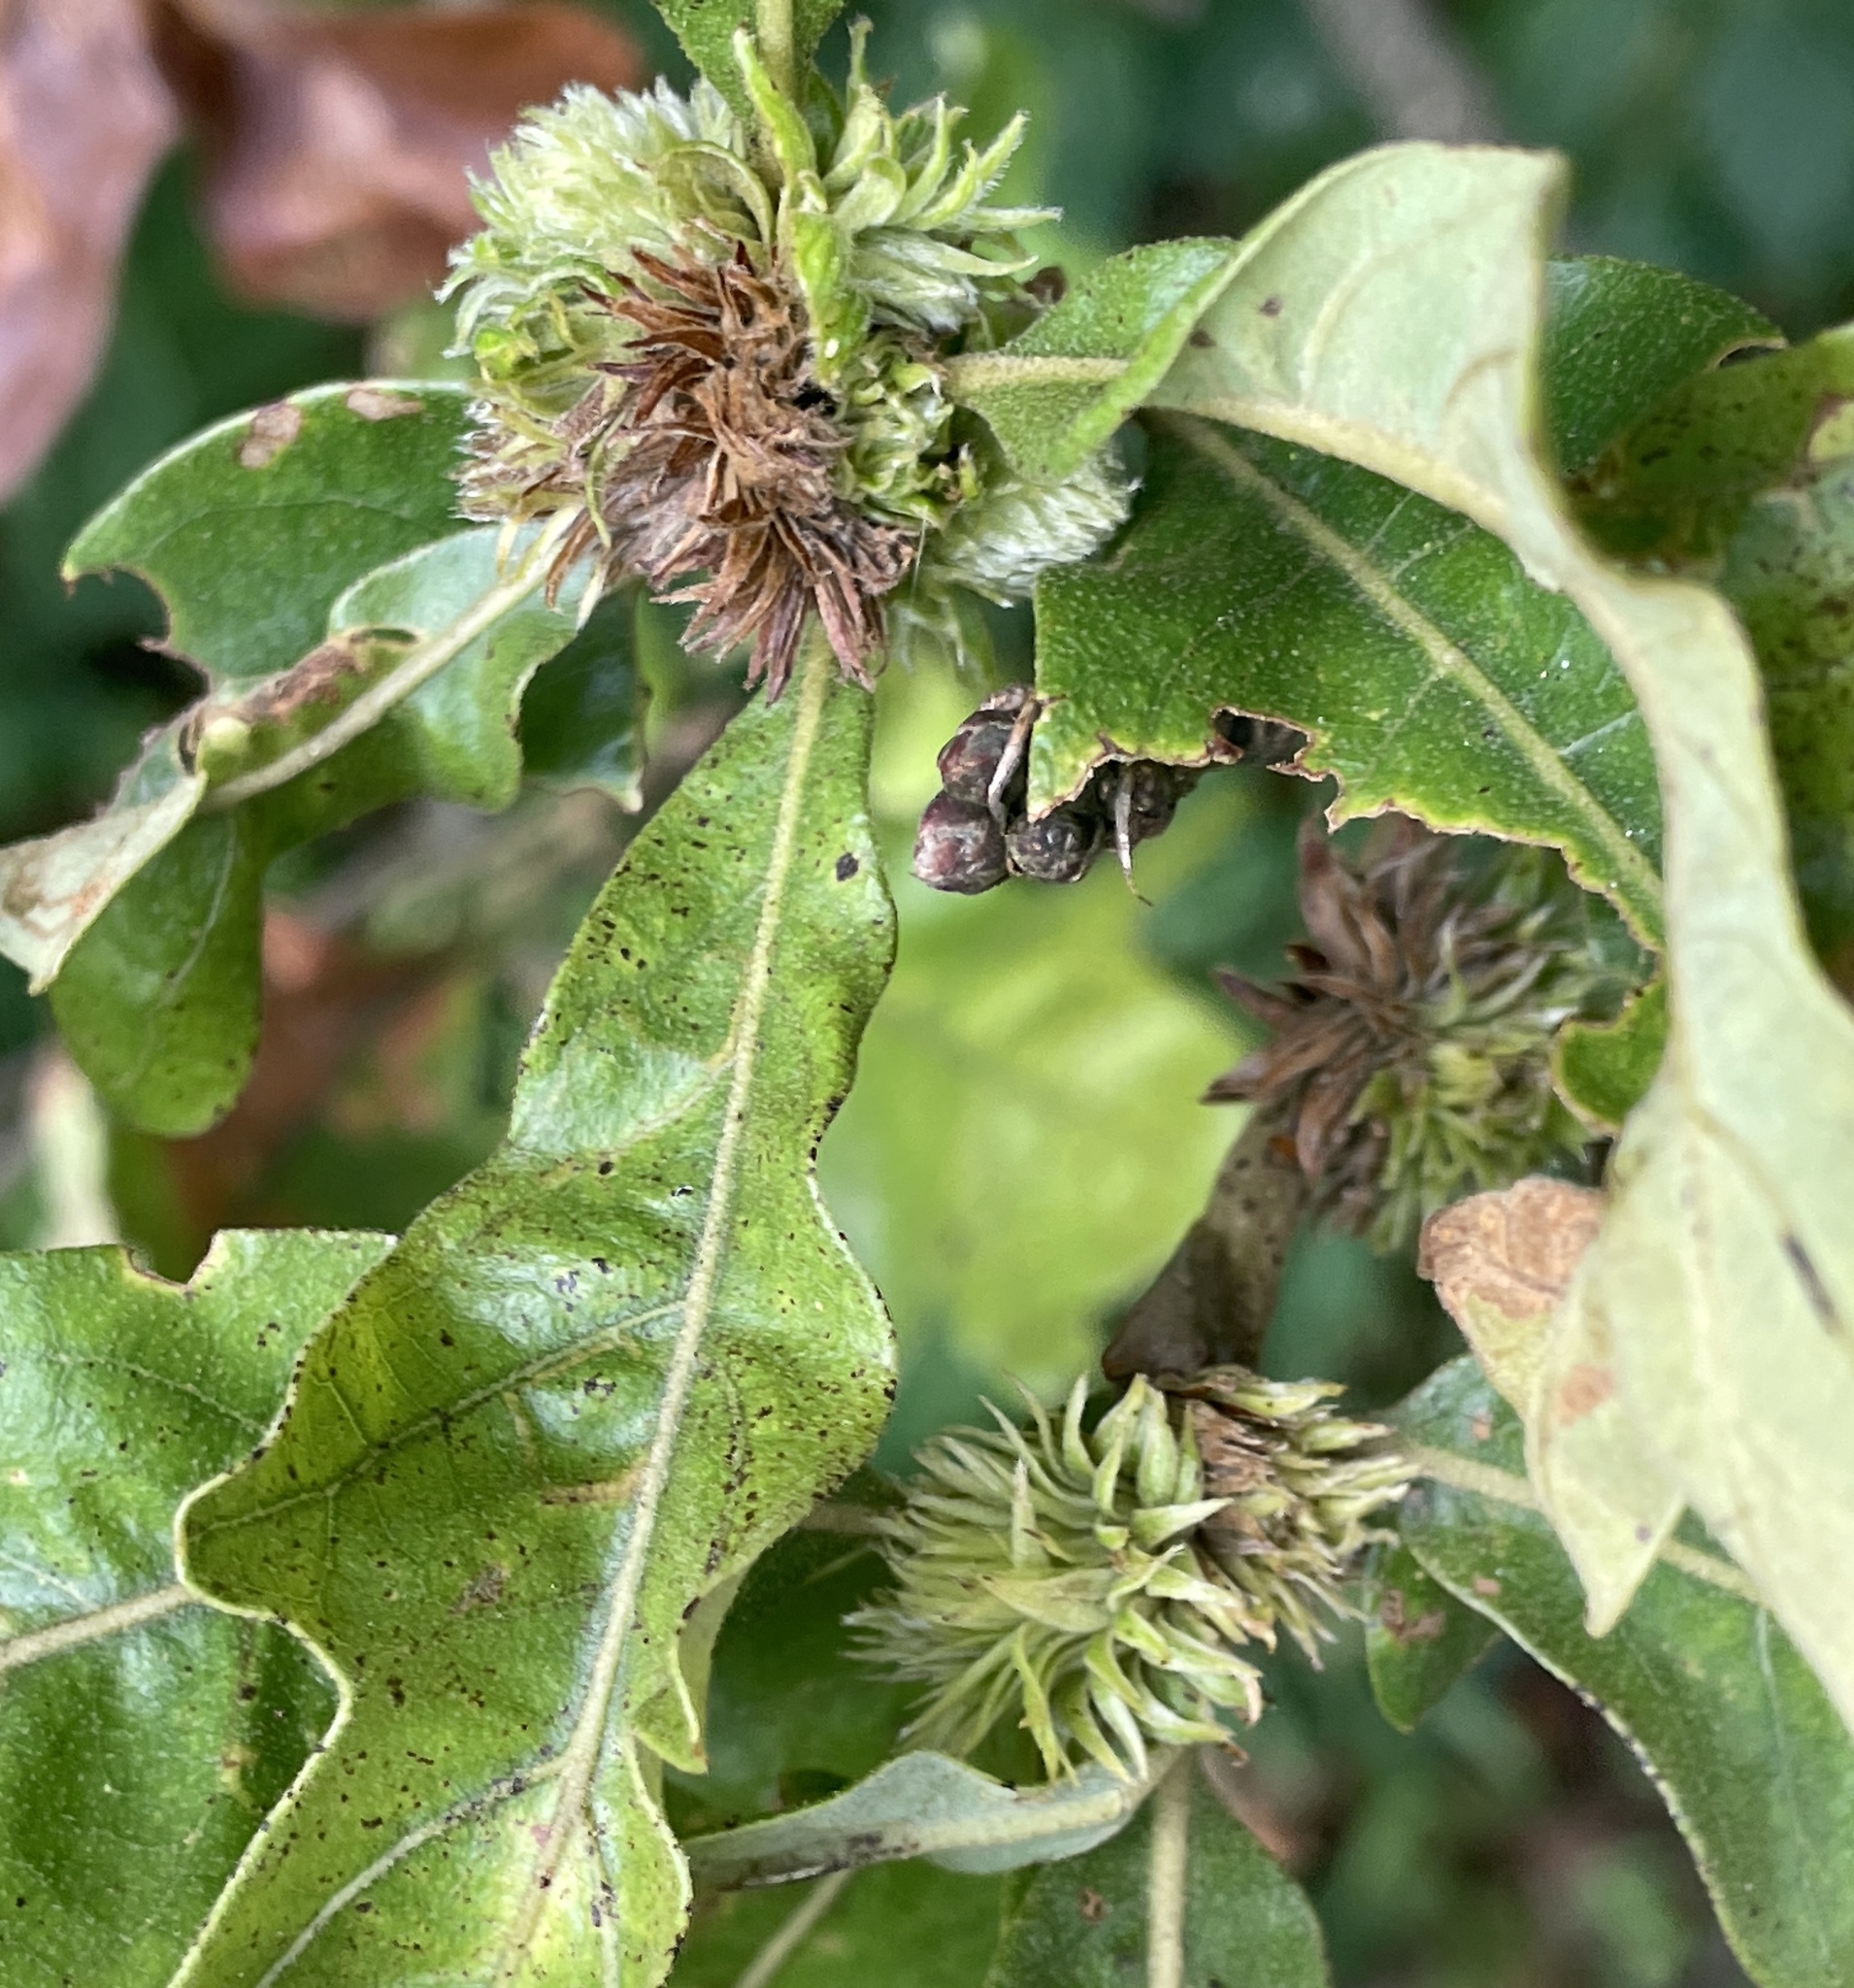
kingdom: Animalia
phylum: Arthropoda
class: Insecta
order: Hymenoptera
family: Cynipidae
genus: Andricus
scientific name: Andricus
